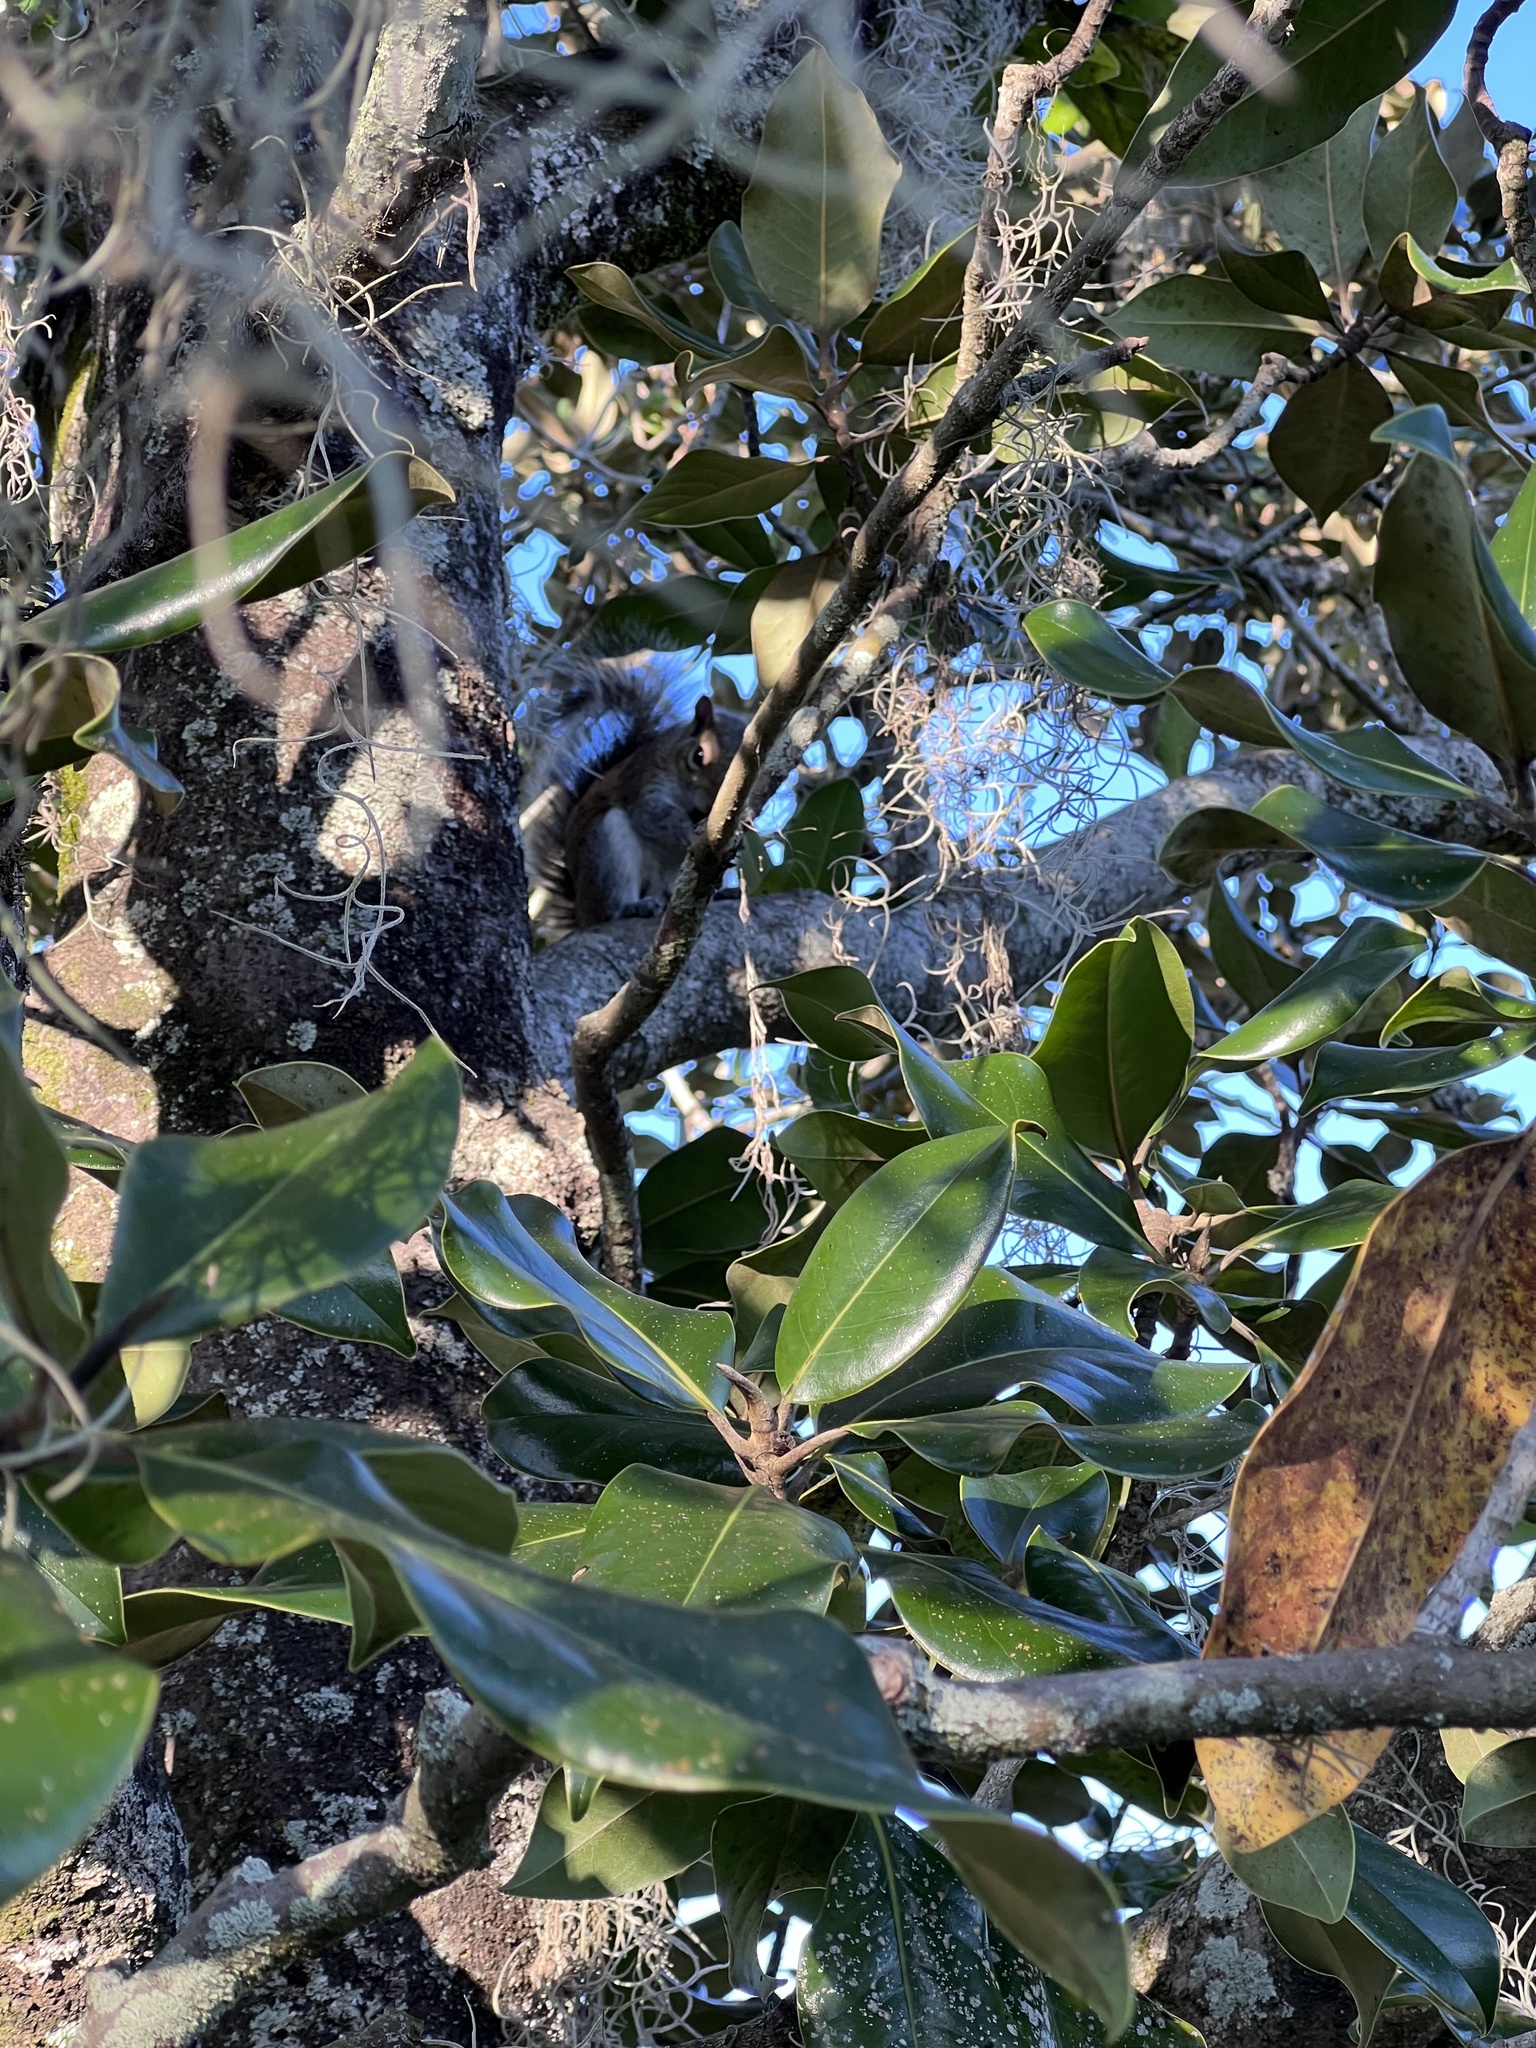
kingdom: Animalia
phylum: Chordata
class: Mammalia
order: Rodentia
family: Sciuridae
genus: Sciurus
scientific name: Sciurus carolinensis
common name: Eastern gray squirrel
